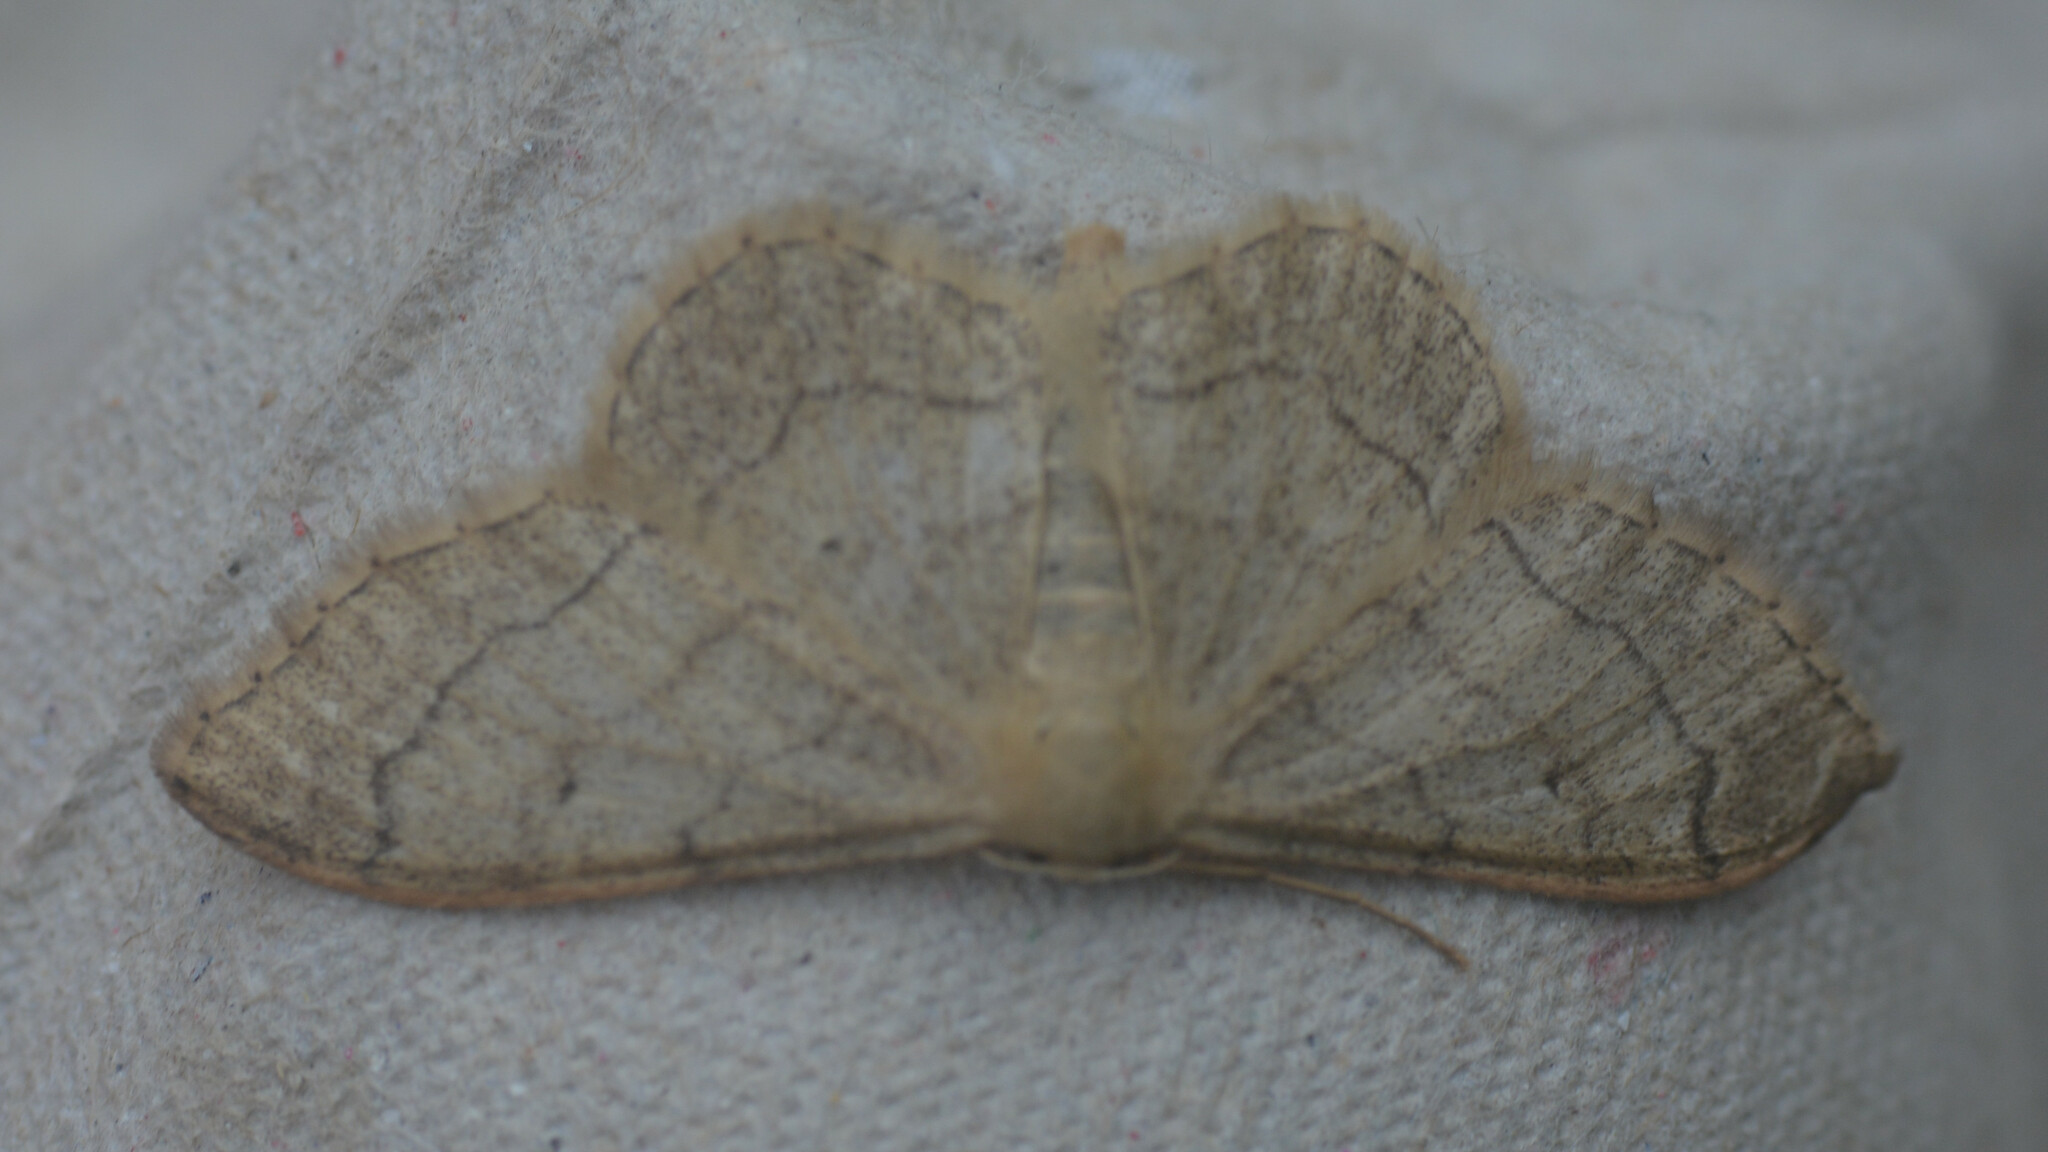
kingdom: Animalia
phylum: Arthropoda
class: Insecta
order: Lepidoptera
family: Geometridae
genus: Idaea
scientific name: Idaea aversata
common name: Riband wave
